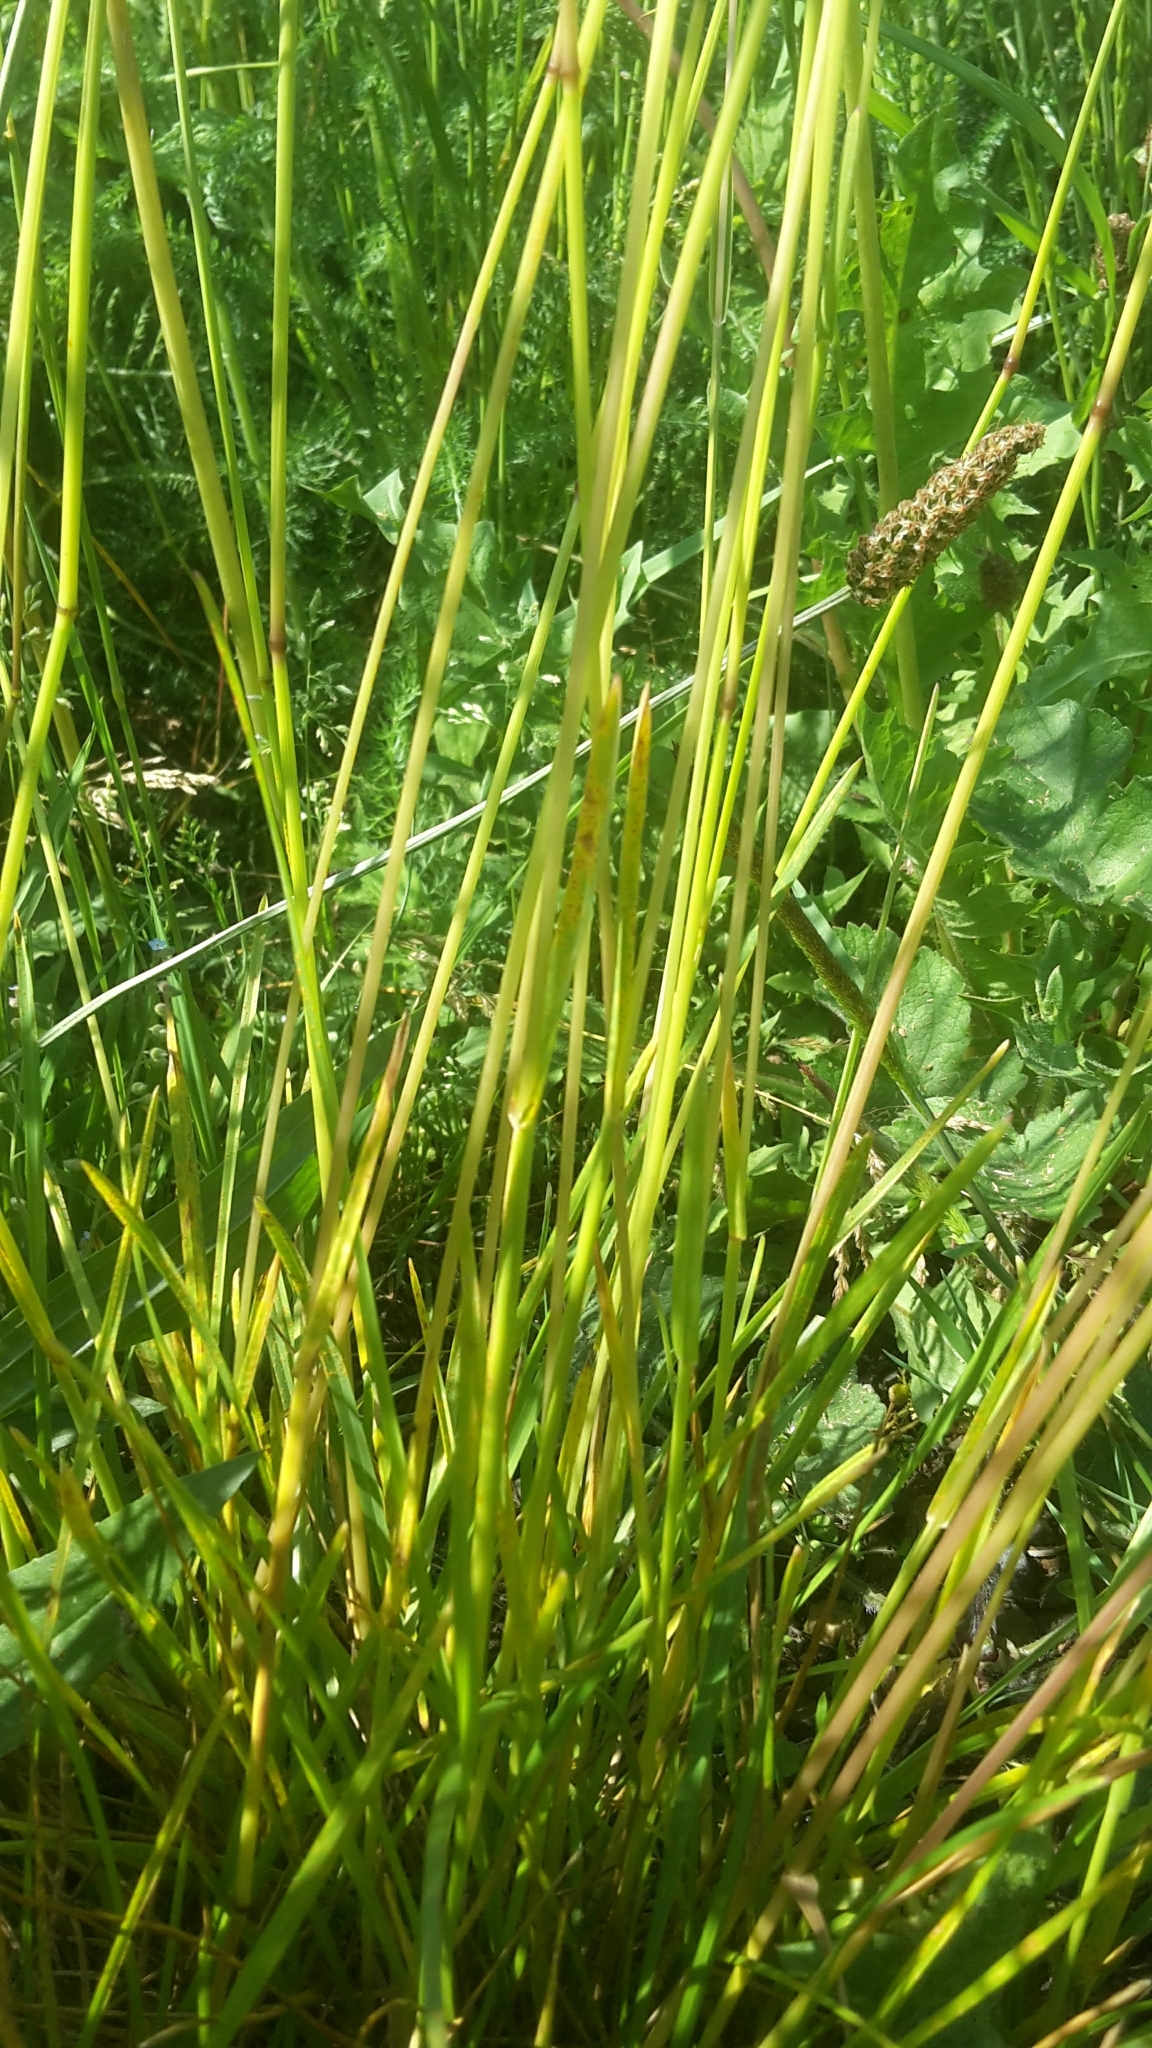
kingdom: Plantae
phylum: Tracheophyta
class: Liliopsida
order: Poales
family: Poaceae
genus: Poa
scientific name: Poa pratensis
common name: Kentucky bluegrass
